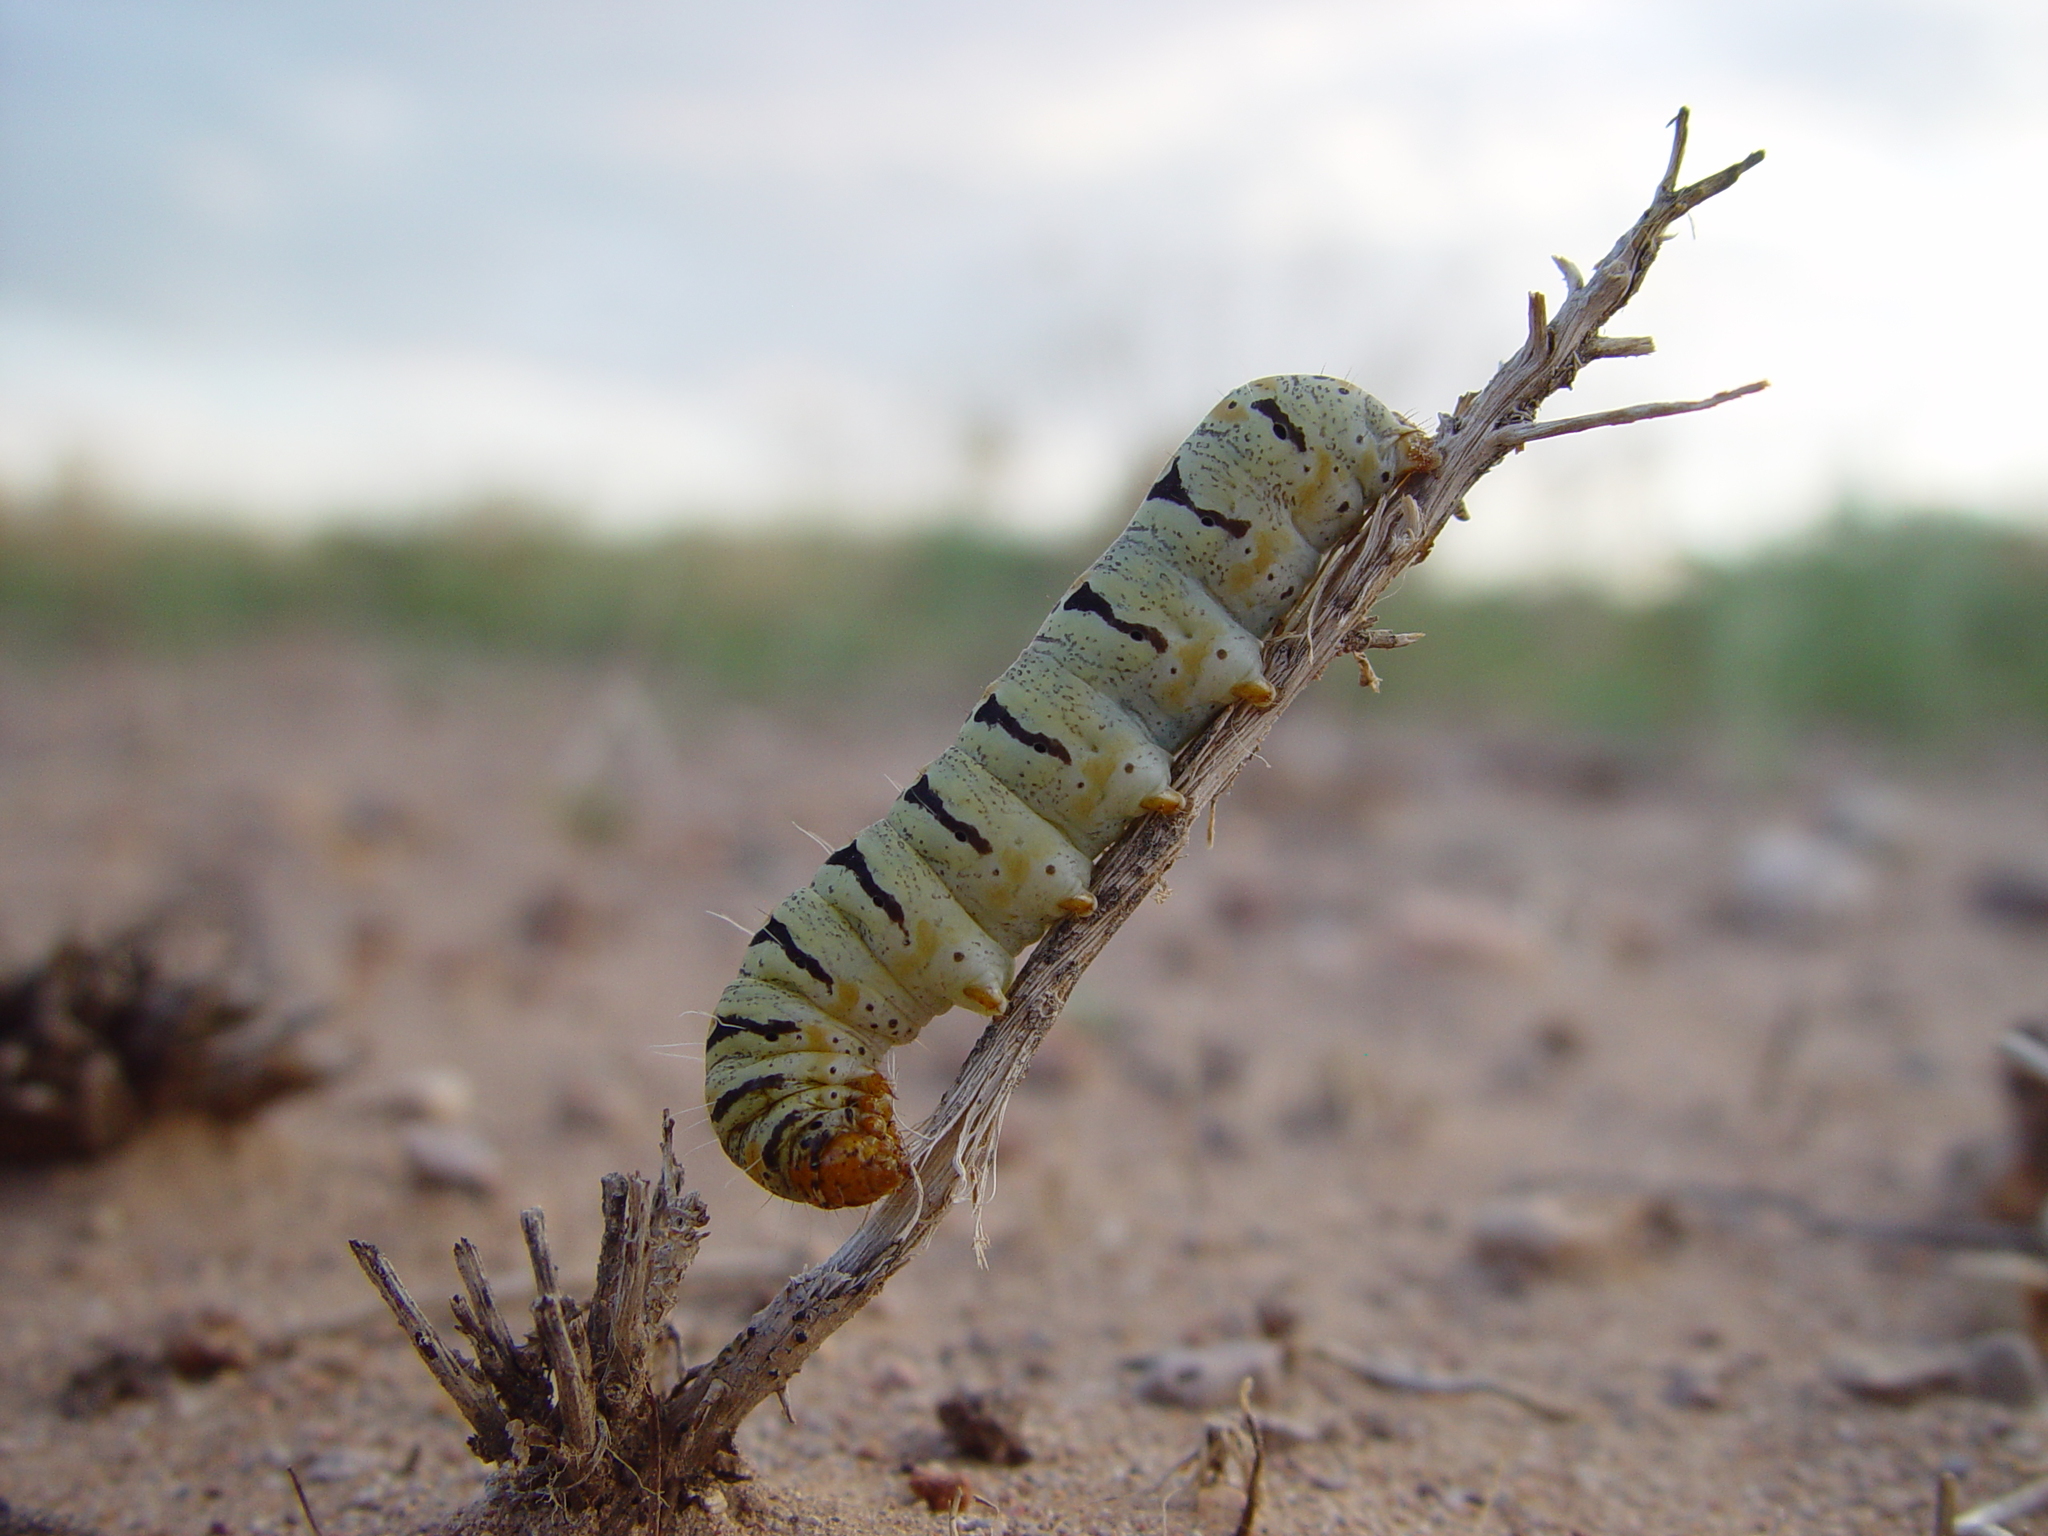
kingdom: Animalia
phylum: Arthropoda
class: Insecta
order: Lepidoptera
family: Noctuidae
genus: Euscirrhopterus
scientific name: Euscirrhopterus gloveri
